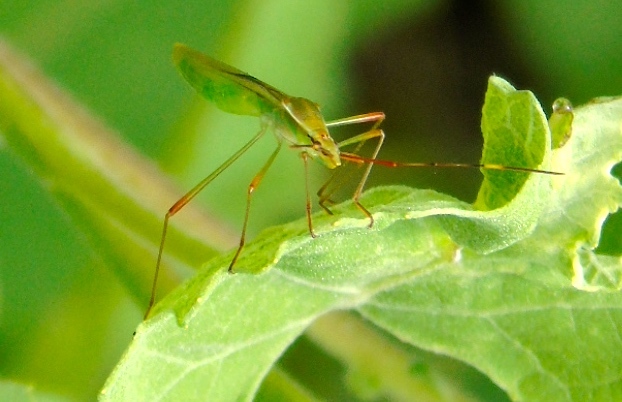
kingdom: Animalia
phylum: Arthropoda
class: Insecta
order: Hemiptera
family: Alydidae
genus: Stenocoris
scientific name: Stenocoris
